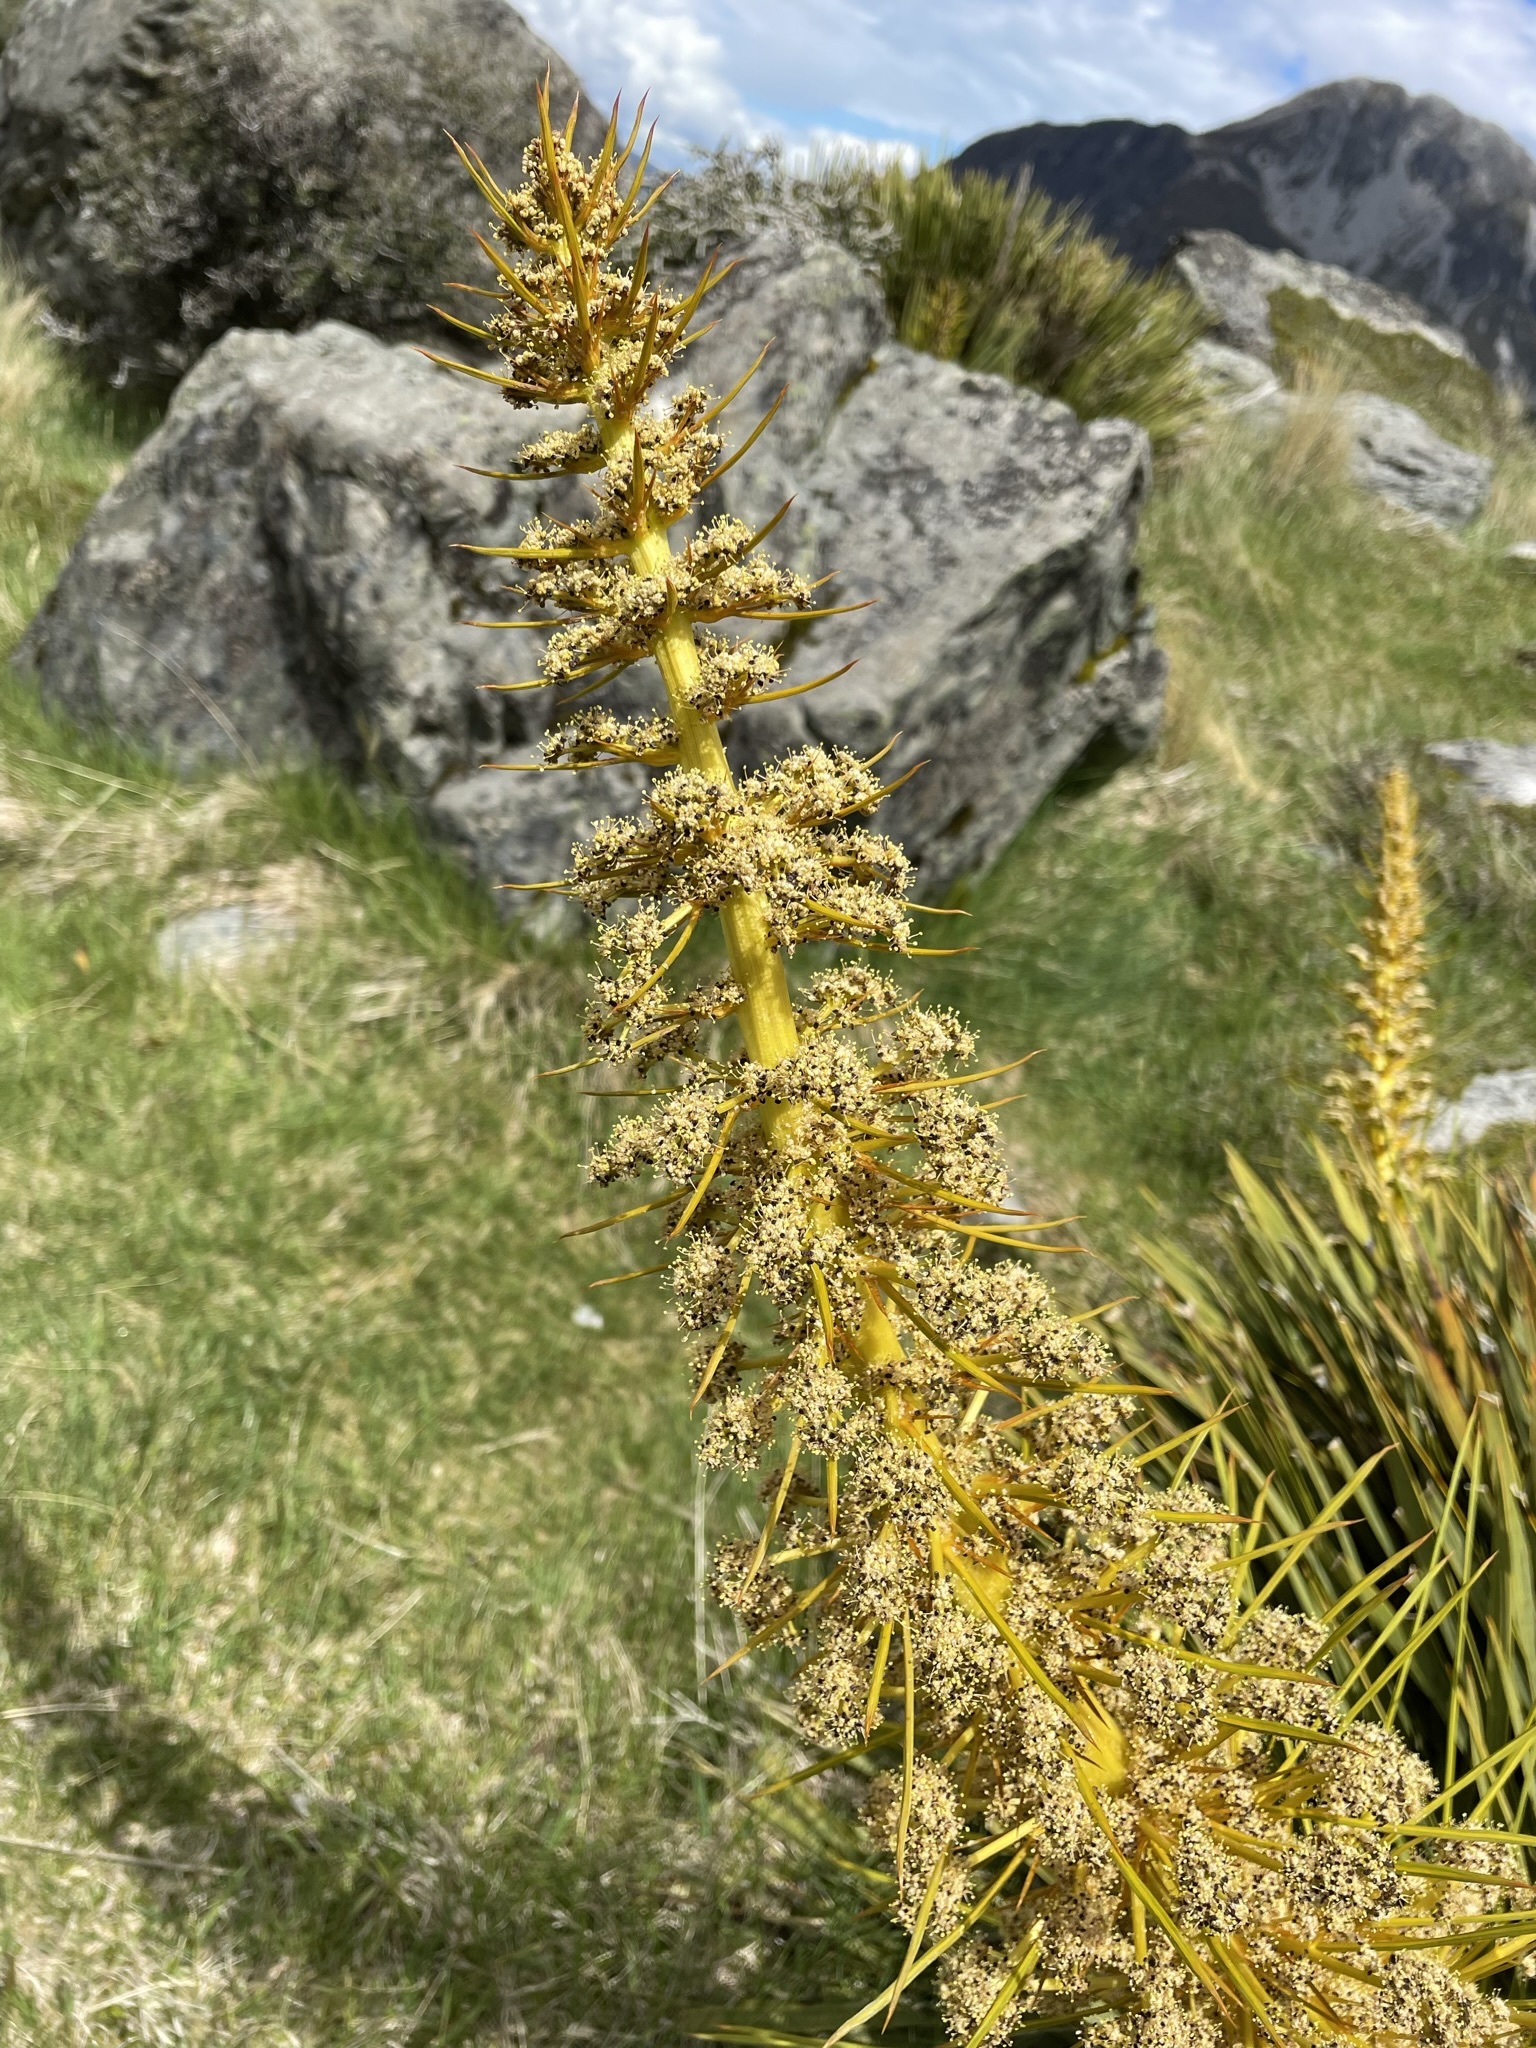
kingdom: Plantae
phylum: Tracheophyta
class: Magnoliopsida
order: Apiales
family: Apiaceae
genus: Aciphylla
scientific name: Aciphylla aurea
